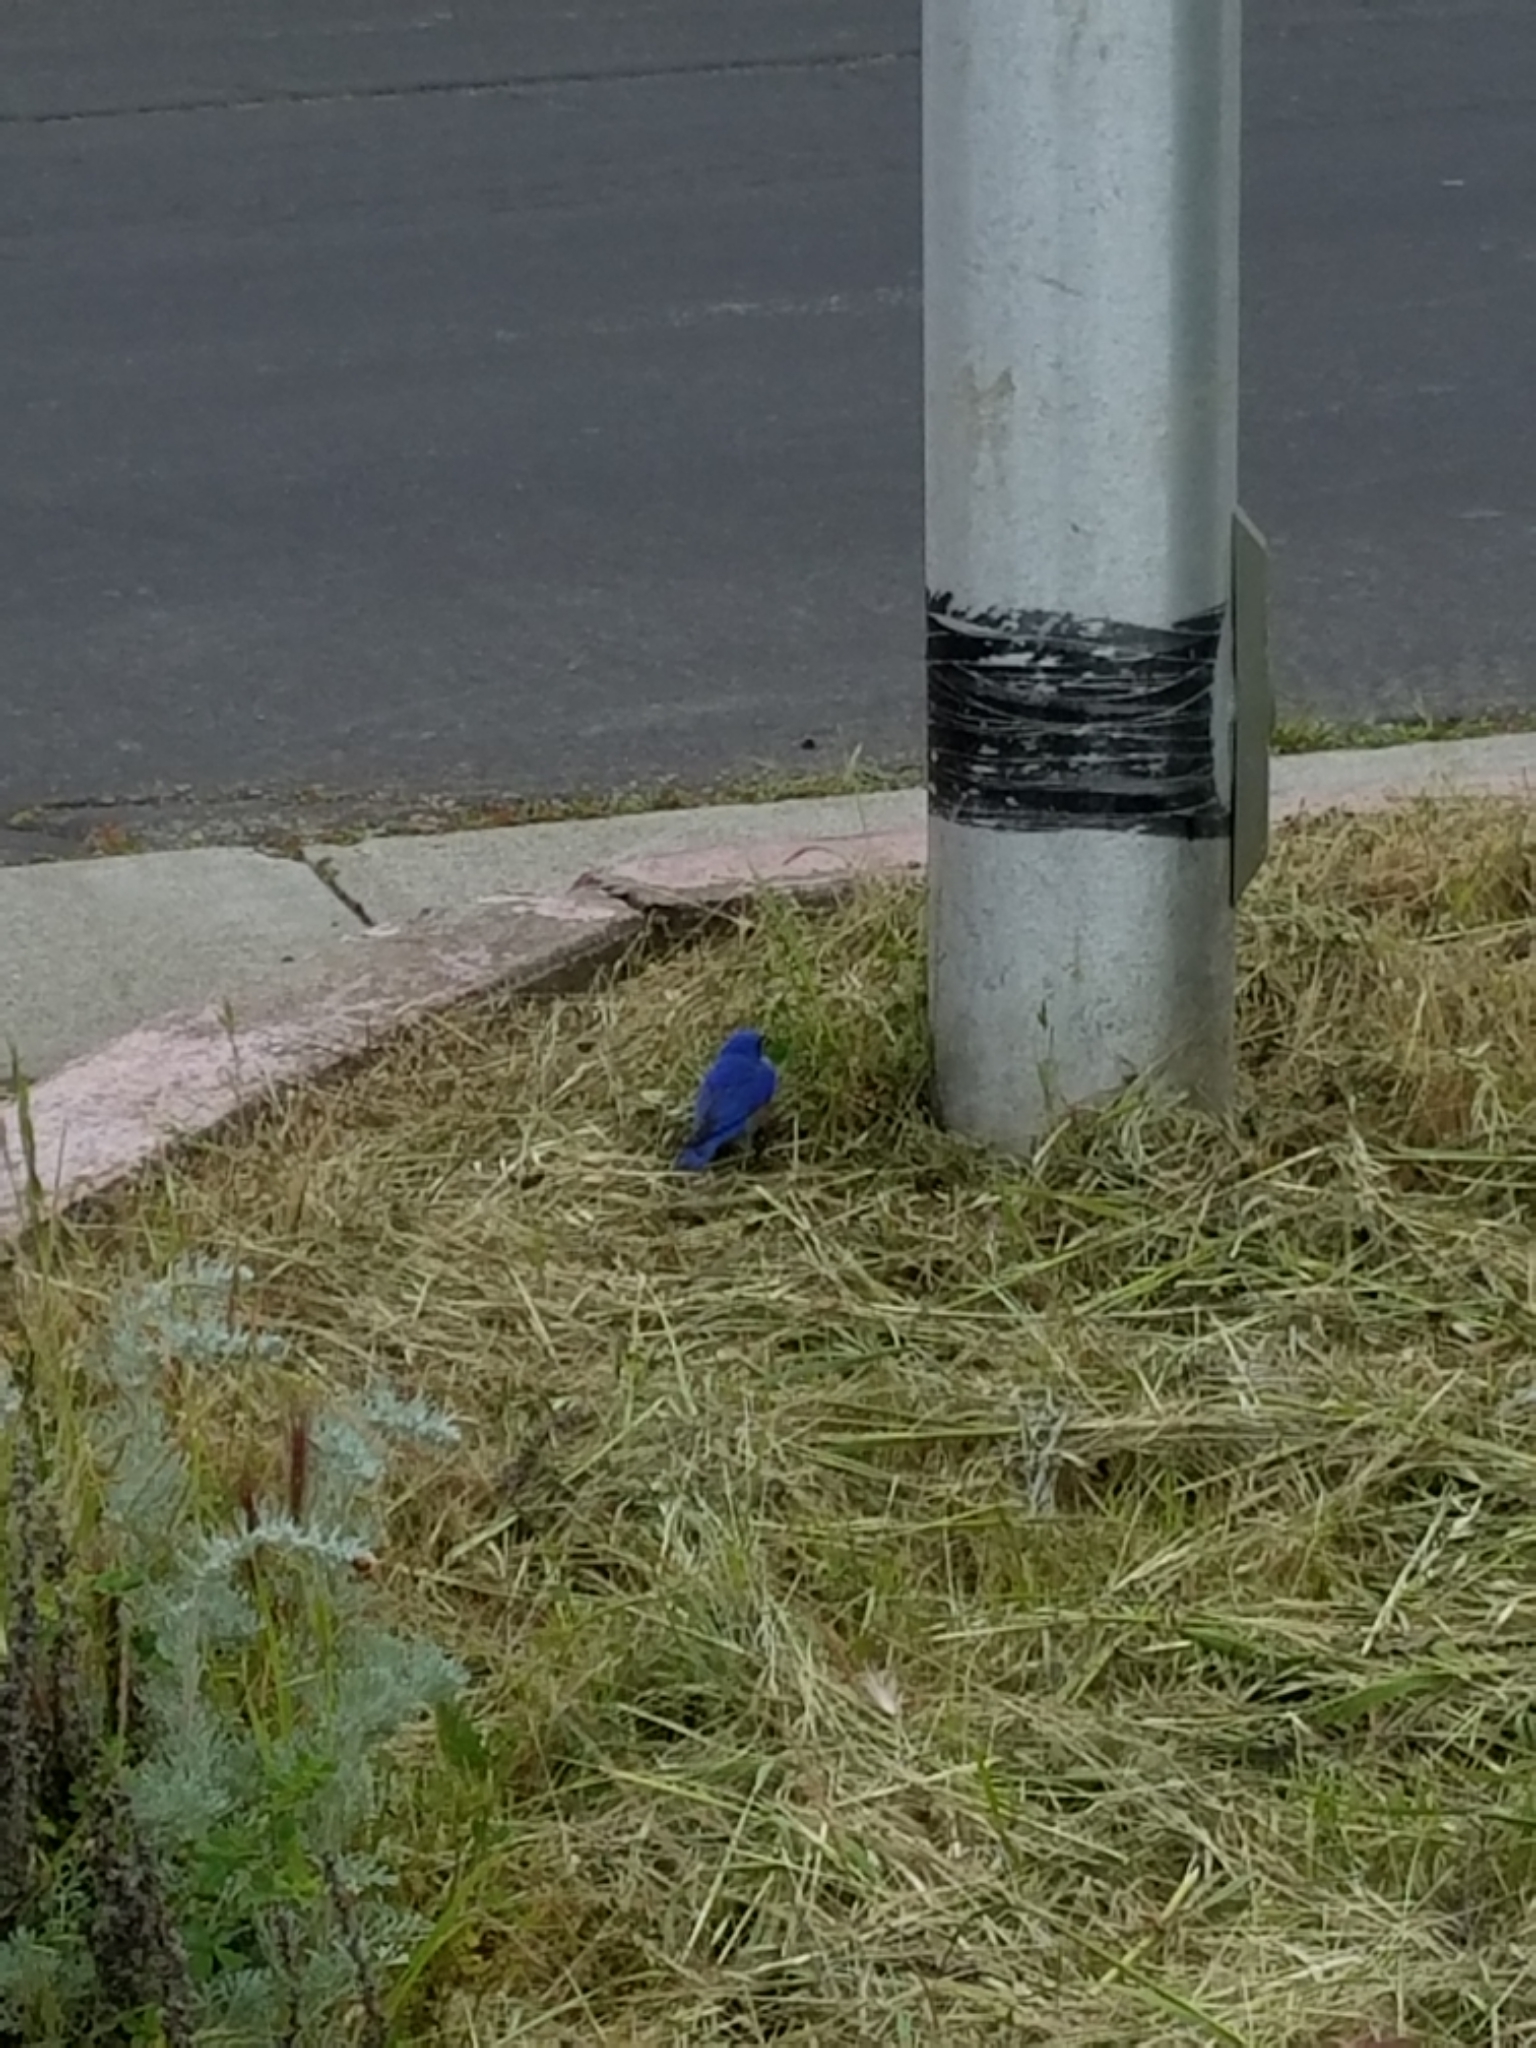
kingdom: Animalia
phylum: Chordata
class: Aves
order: Passeriformes
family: Turdidae
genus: Sialia
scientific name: Sialia mexicana
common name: Western bluebird
